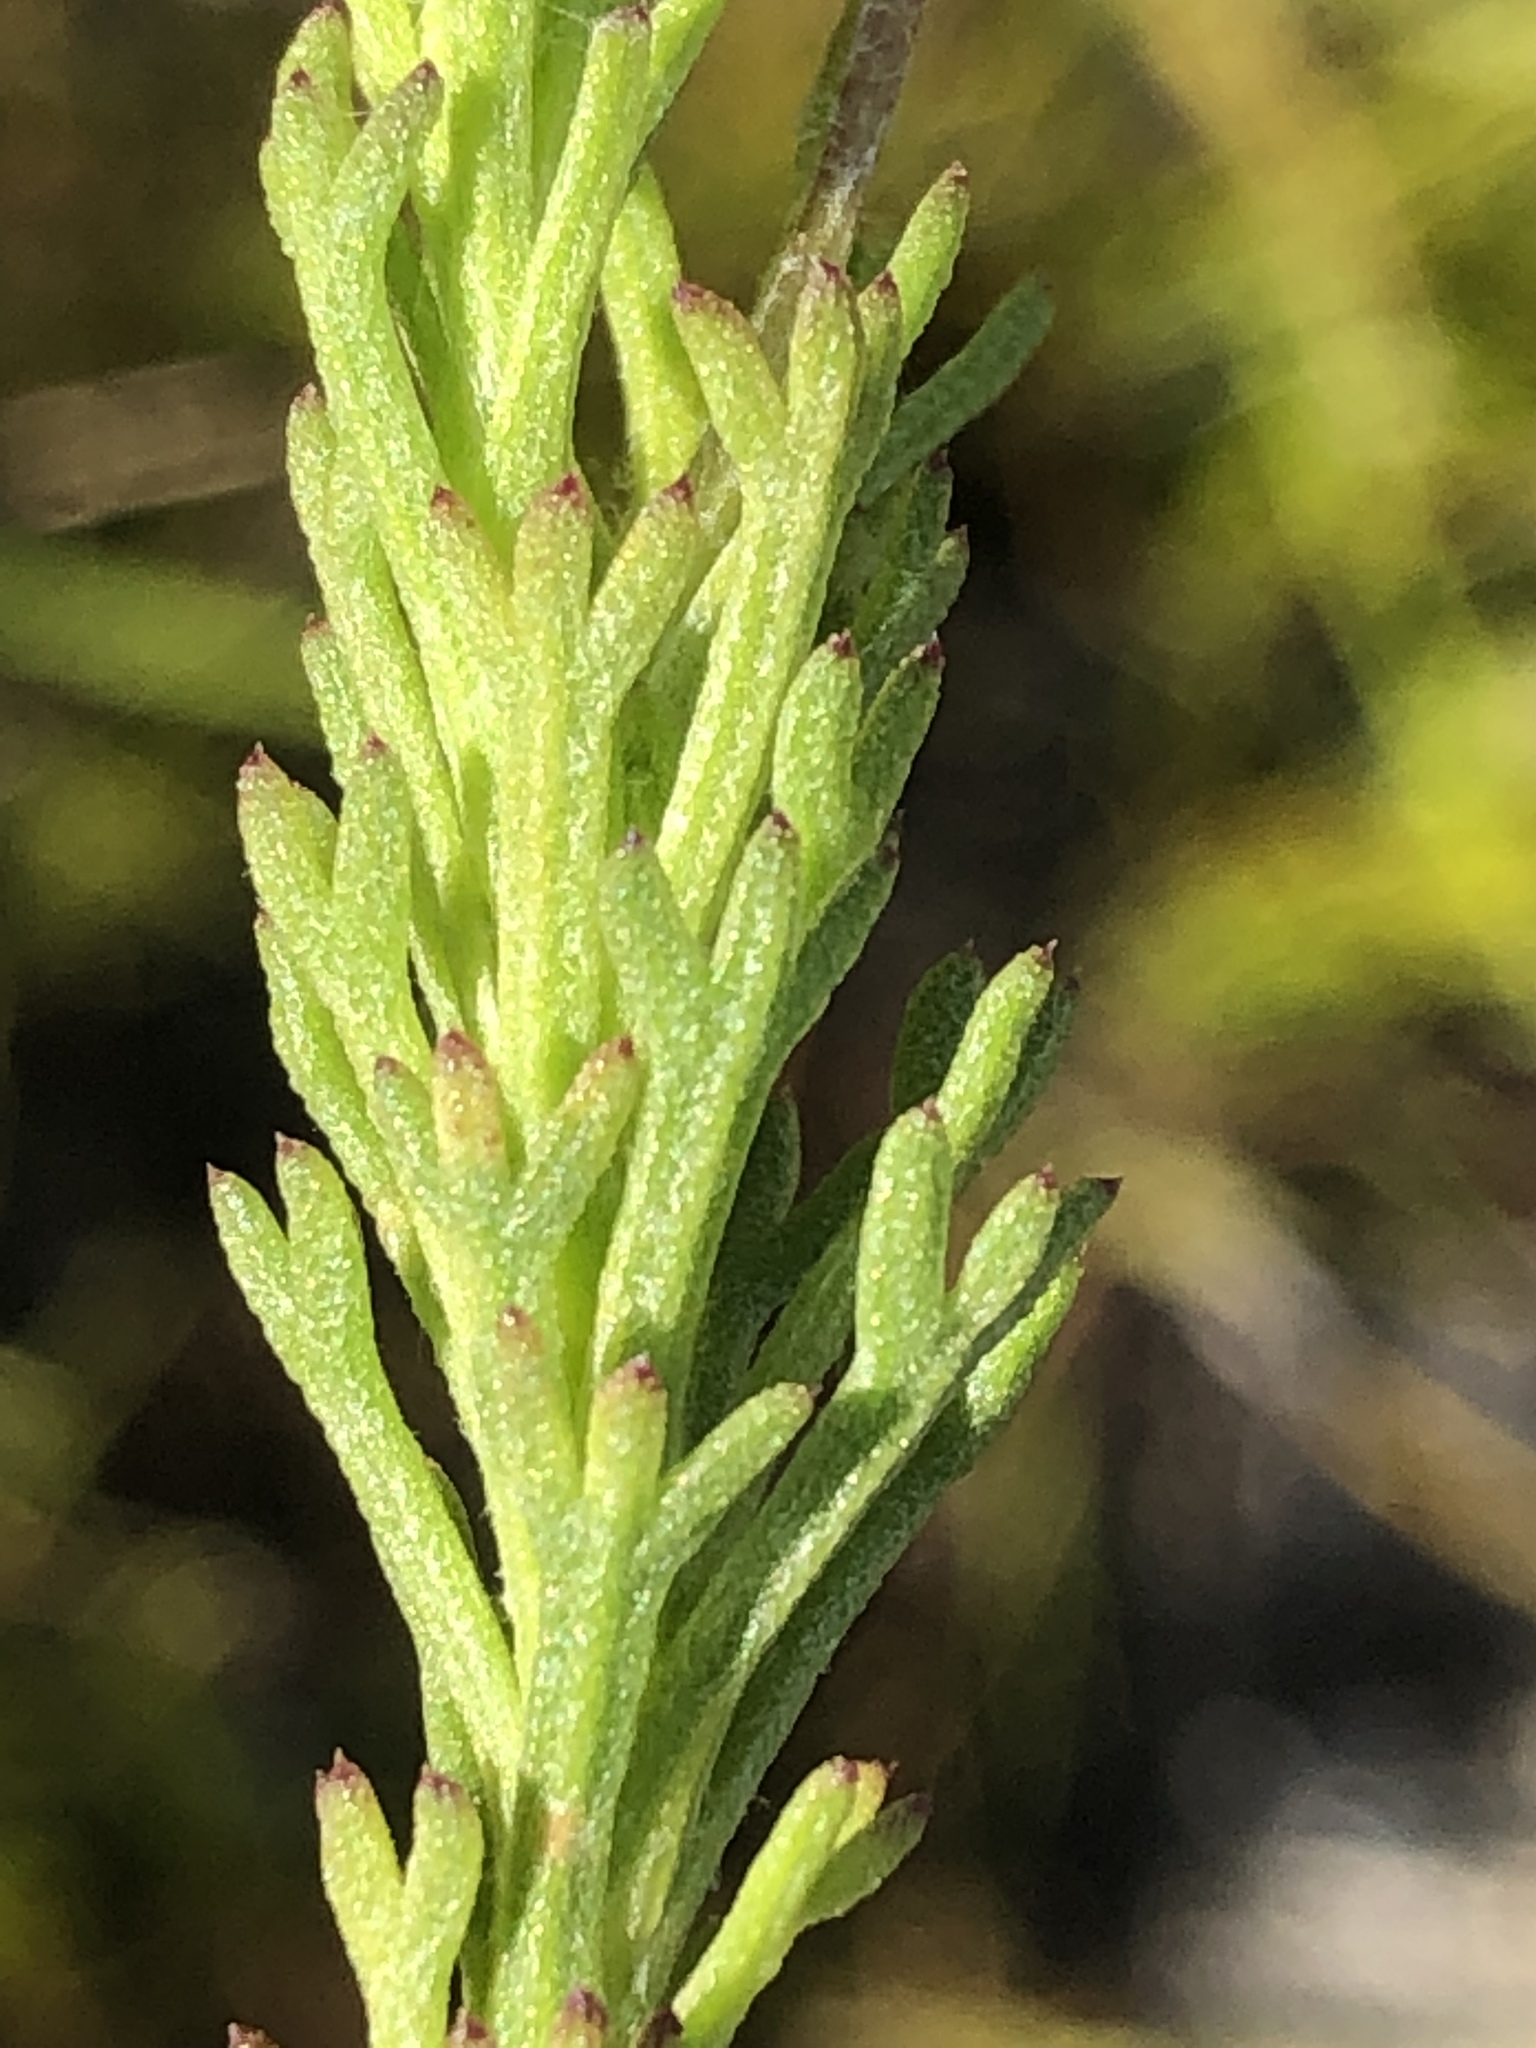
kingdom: Plantae
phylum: Tracheophyta
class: Magnoliopsida
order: Asterales
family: Asteraceae
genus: Ursinia
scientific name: Ursinia trifida
